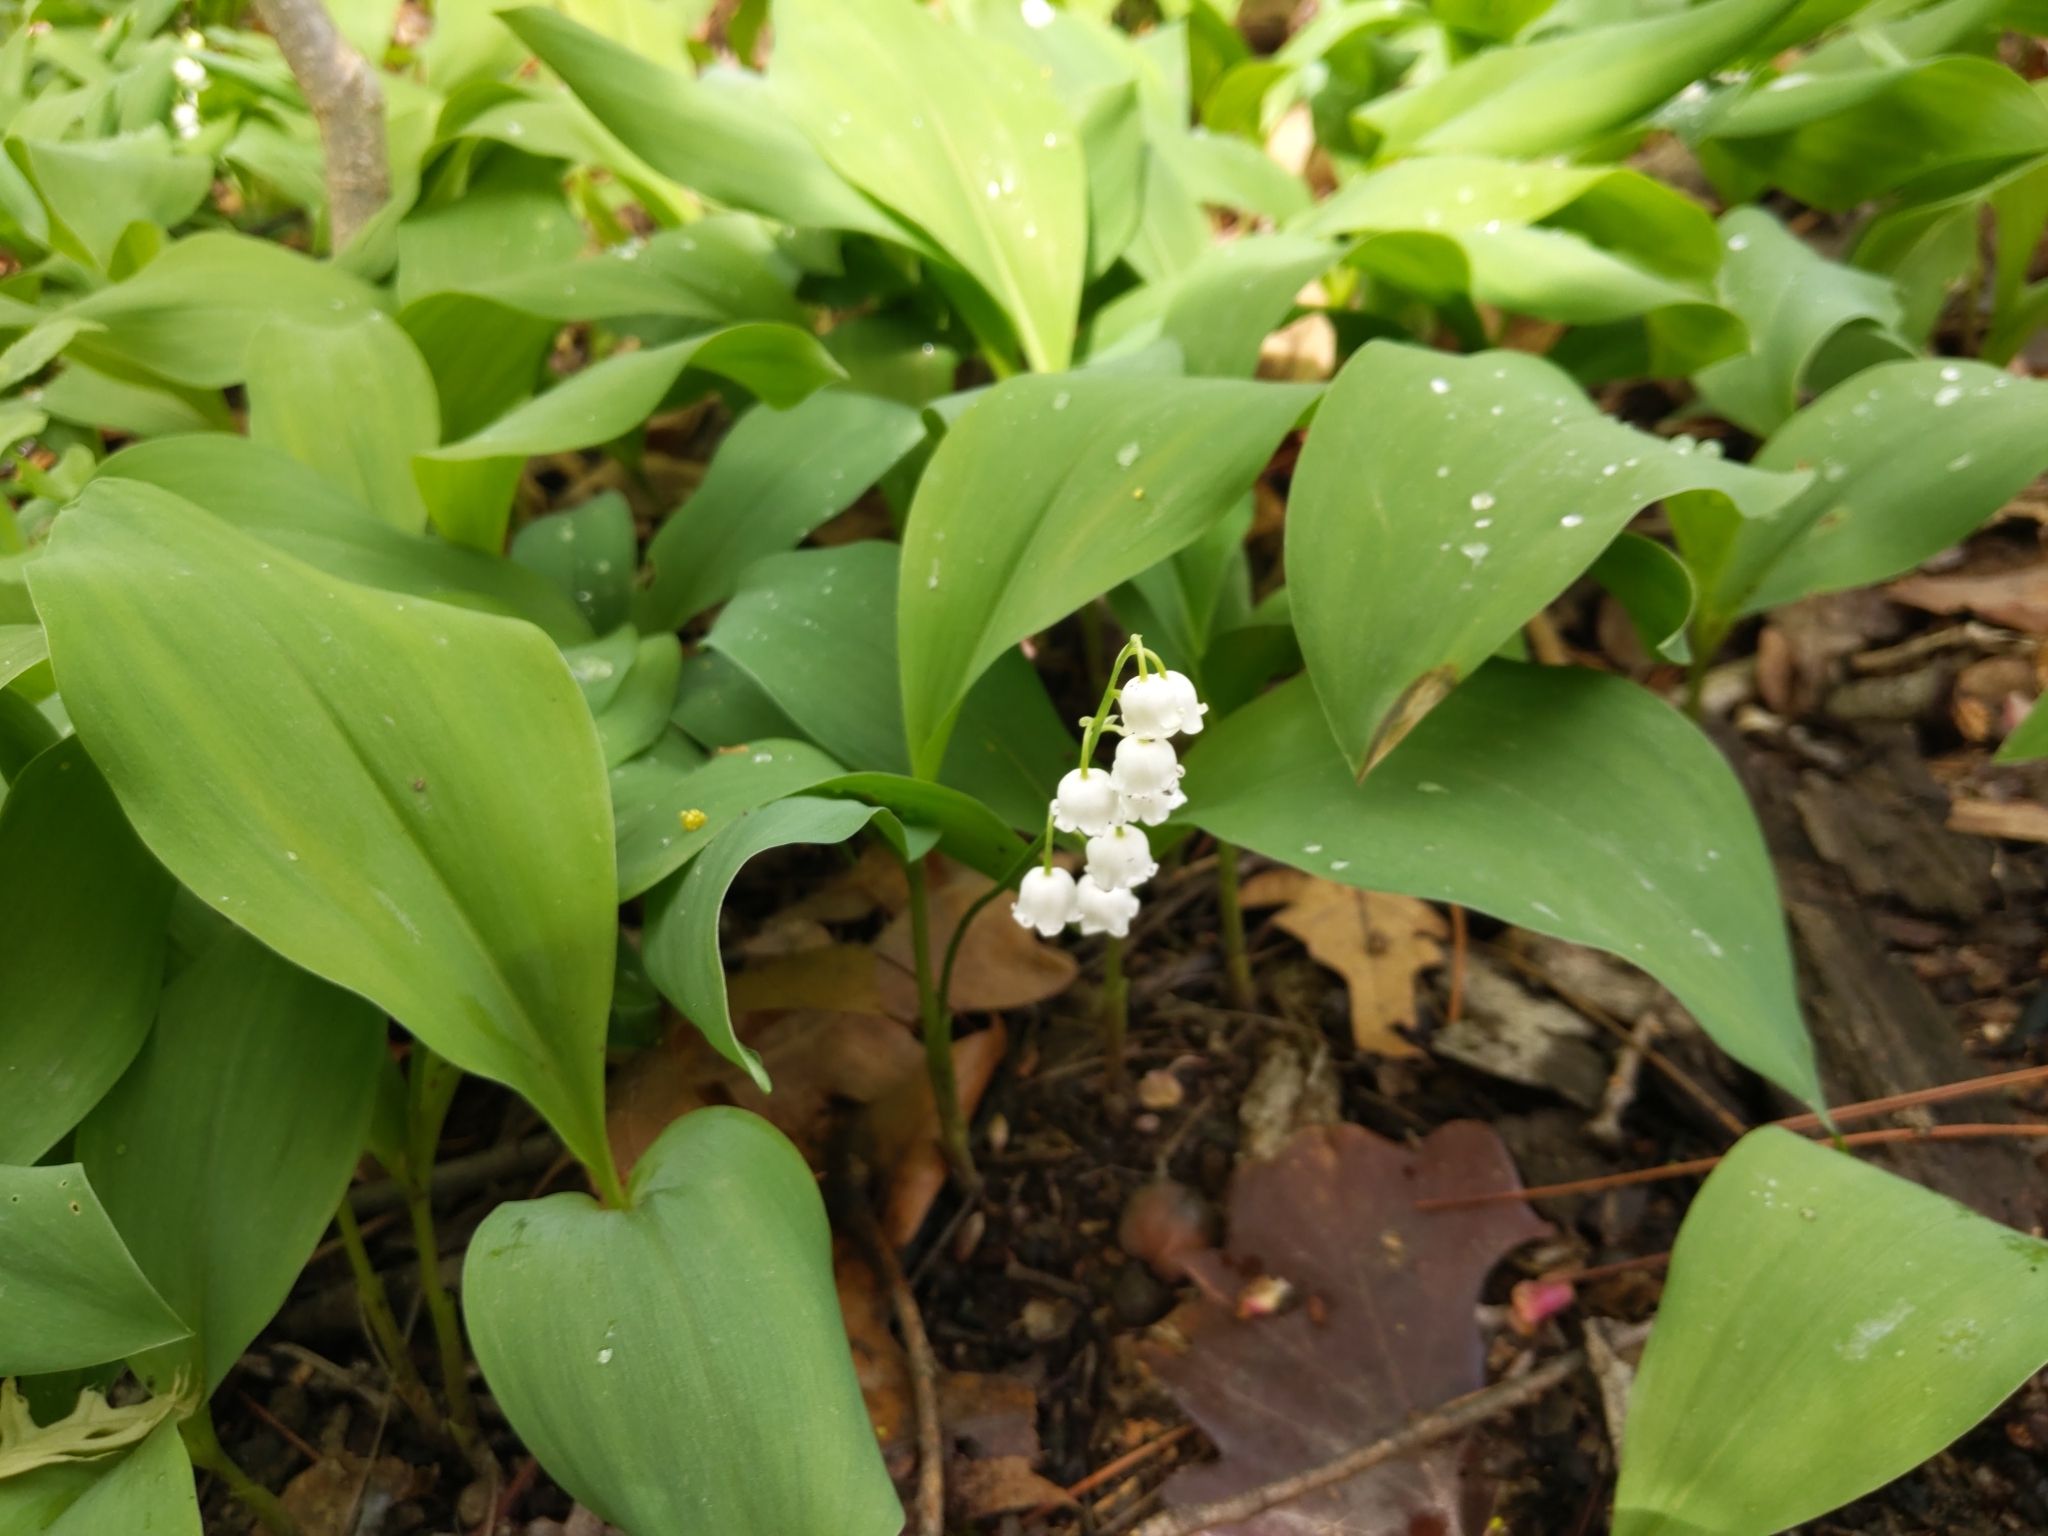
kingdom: Plantae
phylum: Tracheophyta
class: Liliopsida
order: Asparagales
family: Asparagaceae
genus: Convallaria
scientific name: Convallaria majalis
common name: Lily-of-the-valley
